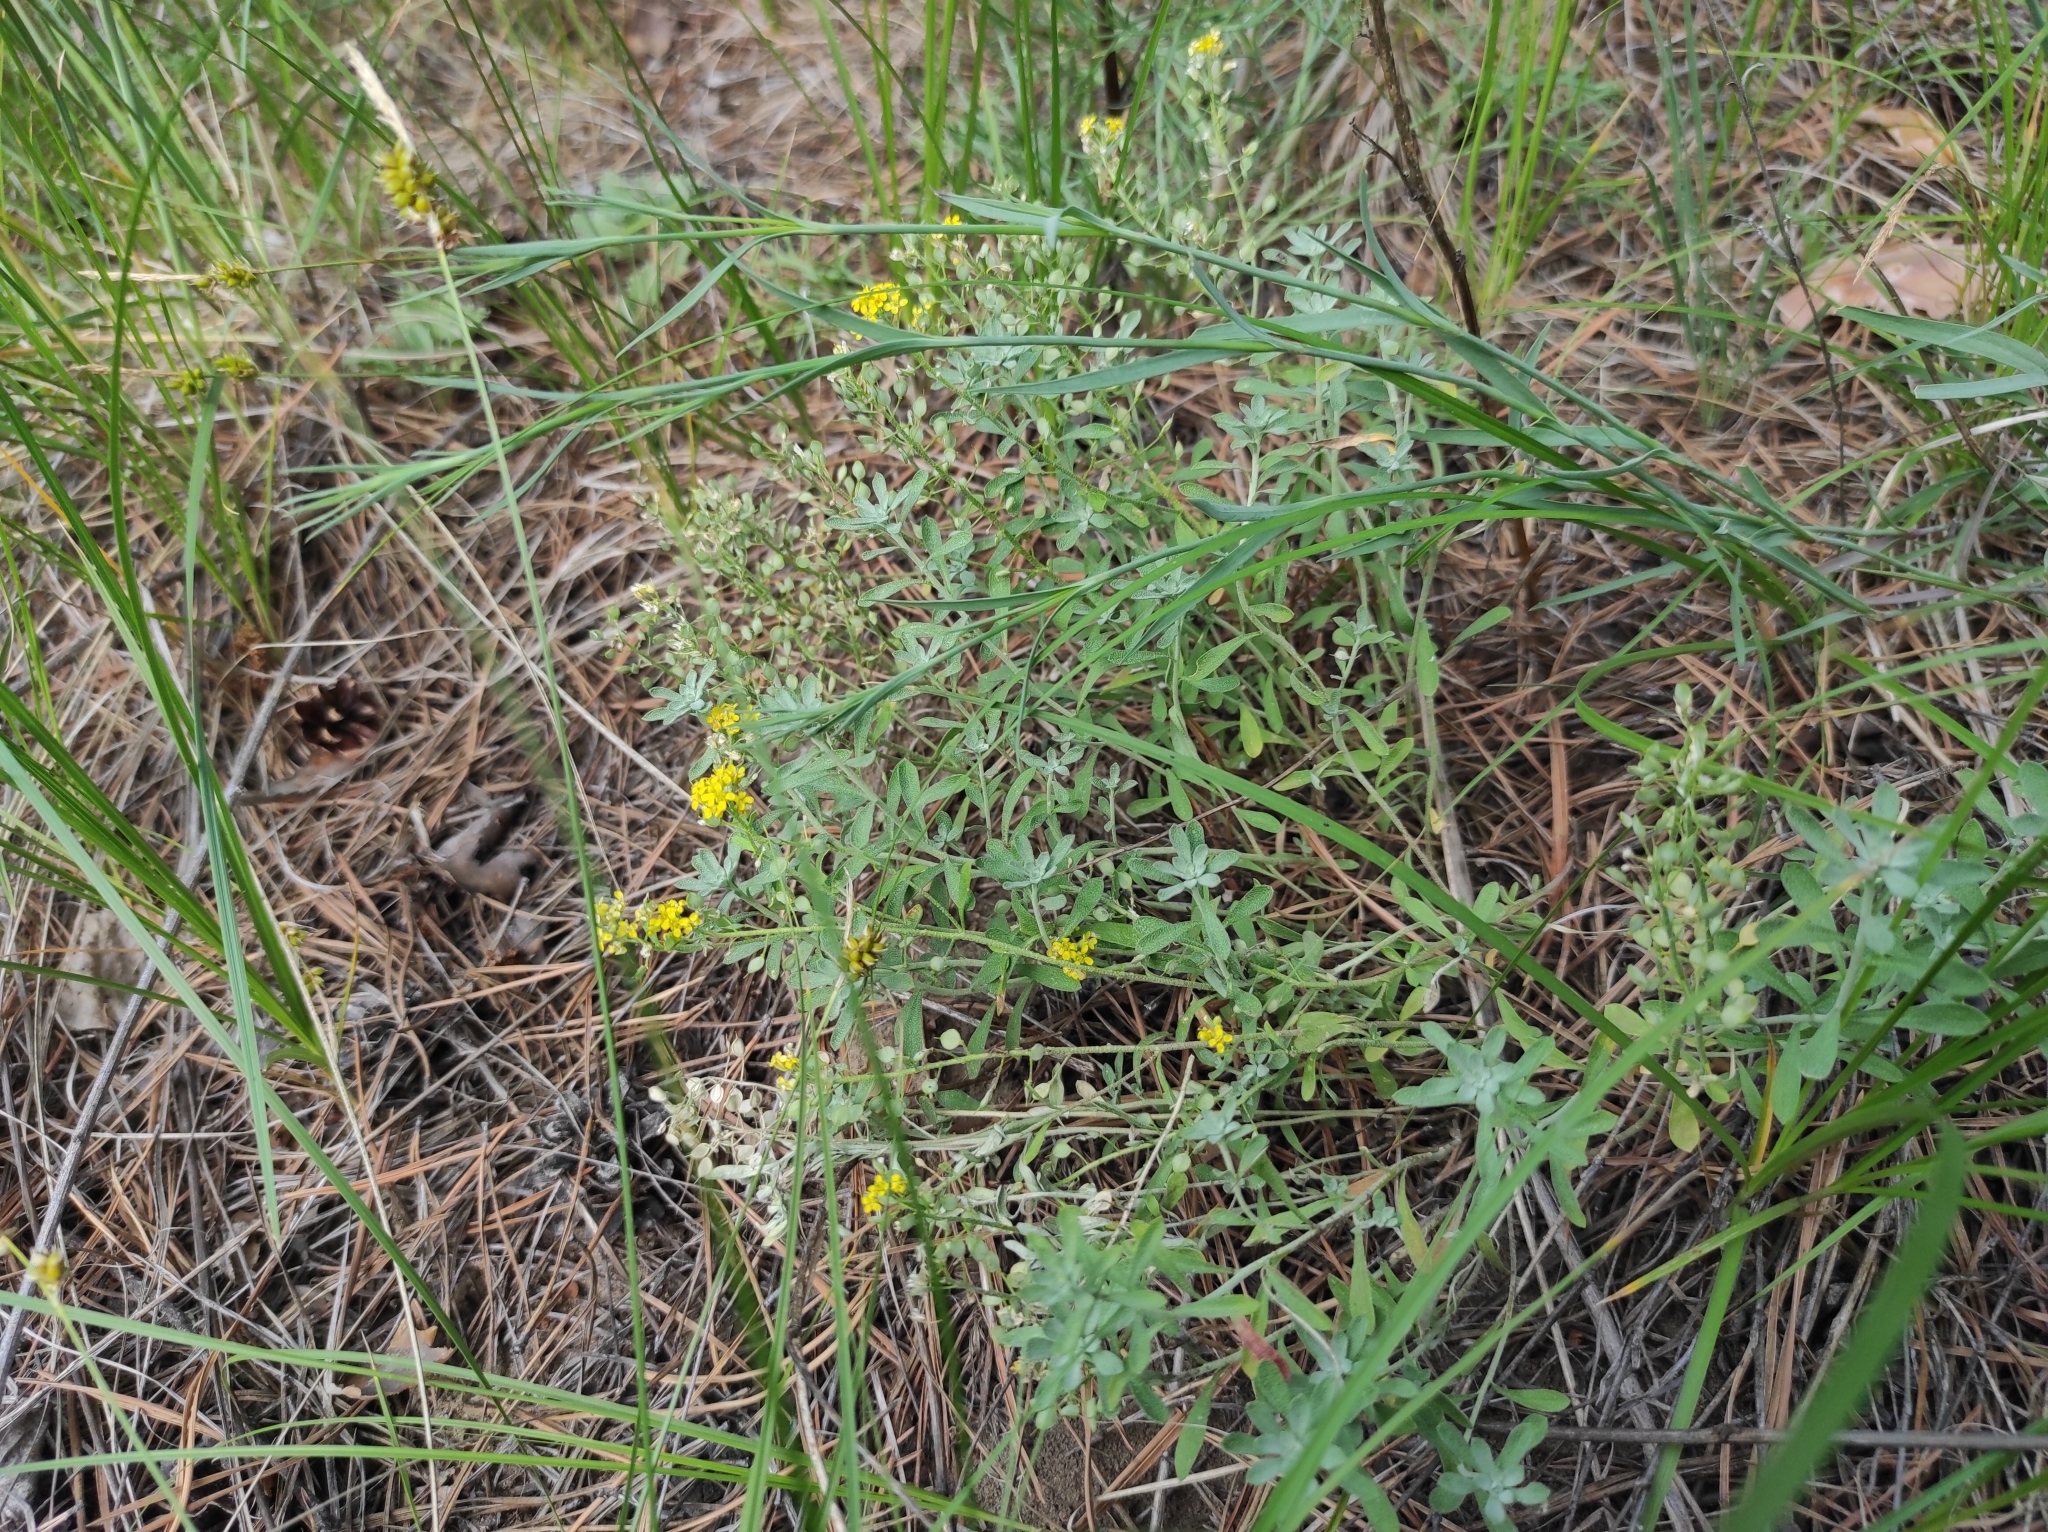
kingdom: Plantae
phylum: Tracheophyta
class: Magnoliopsida
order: Brassicales
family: Brassicaceae
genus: Odontarrhena
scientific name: Odontarrhena obovata
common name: American alyssum
